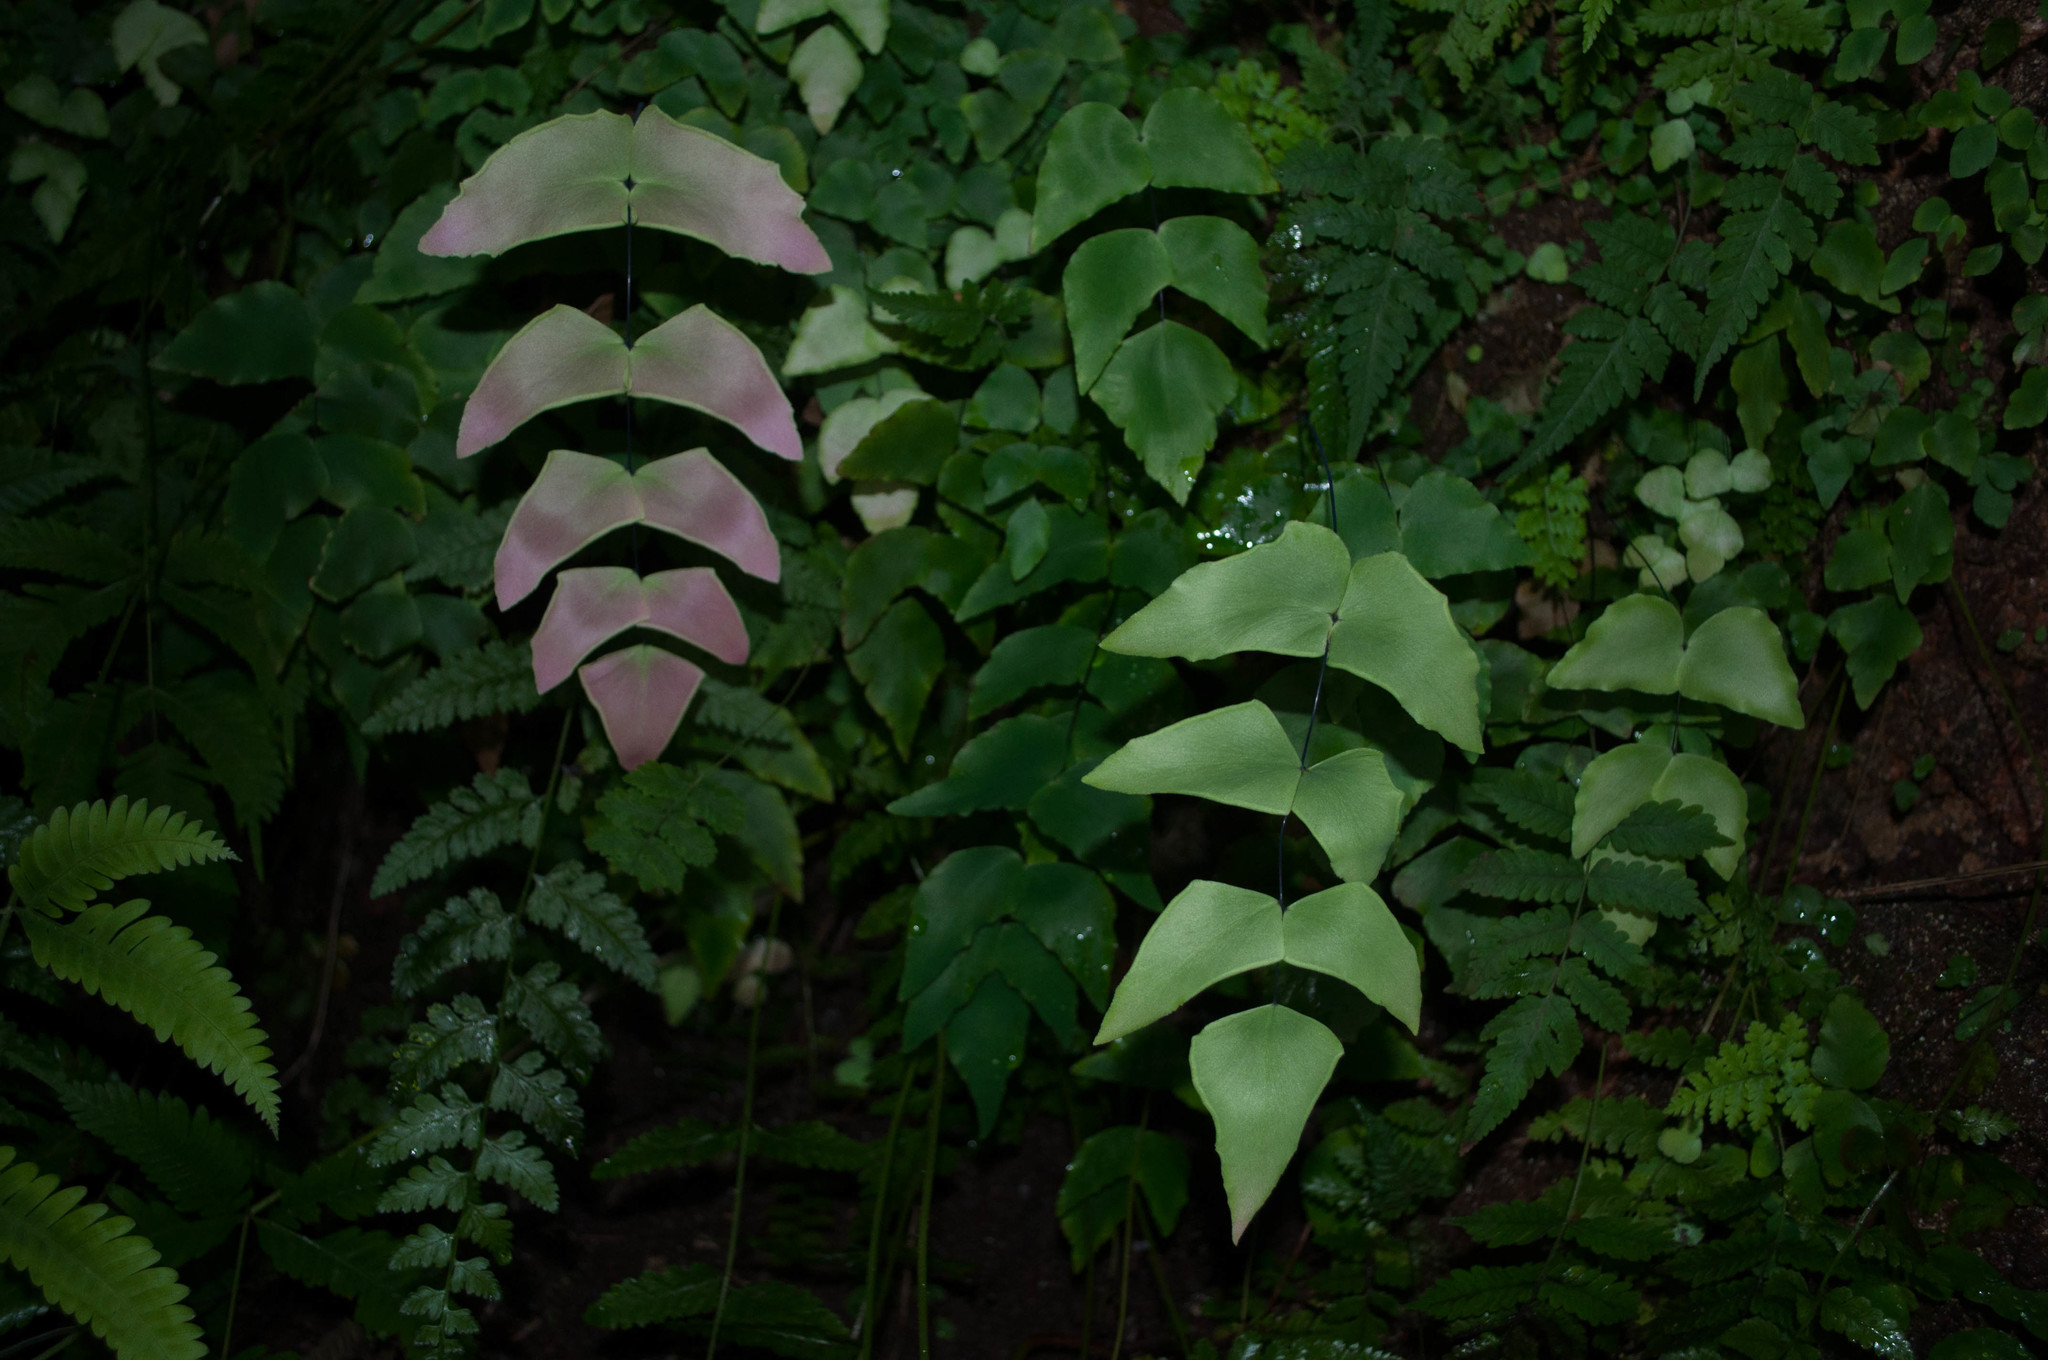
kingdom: Plantae
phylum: Tracheophyta
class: Polypodiopsida
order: Polypodiales
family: Pteridaceae
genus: Adiantum
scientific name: Adiantum macrophyllum
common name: Largeleaf maidenhair
